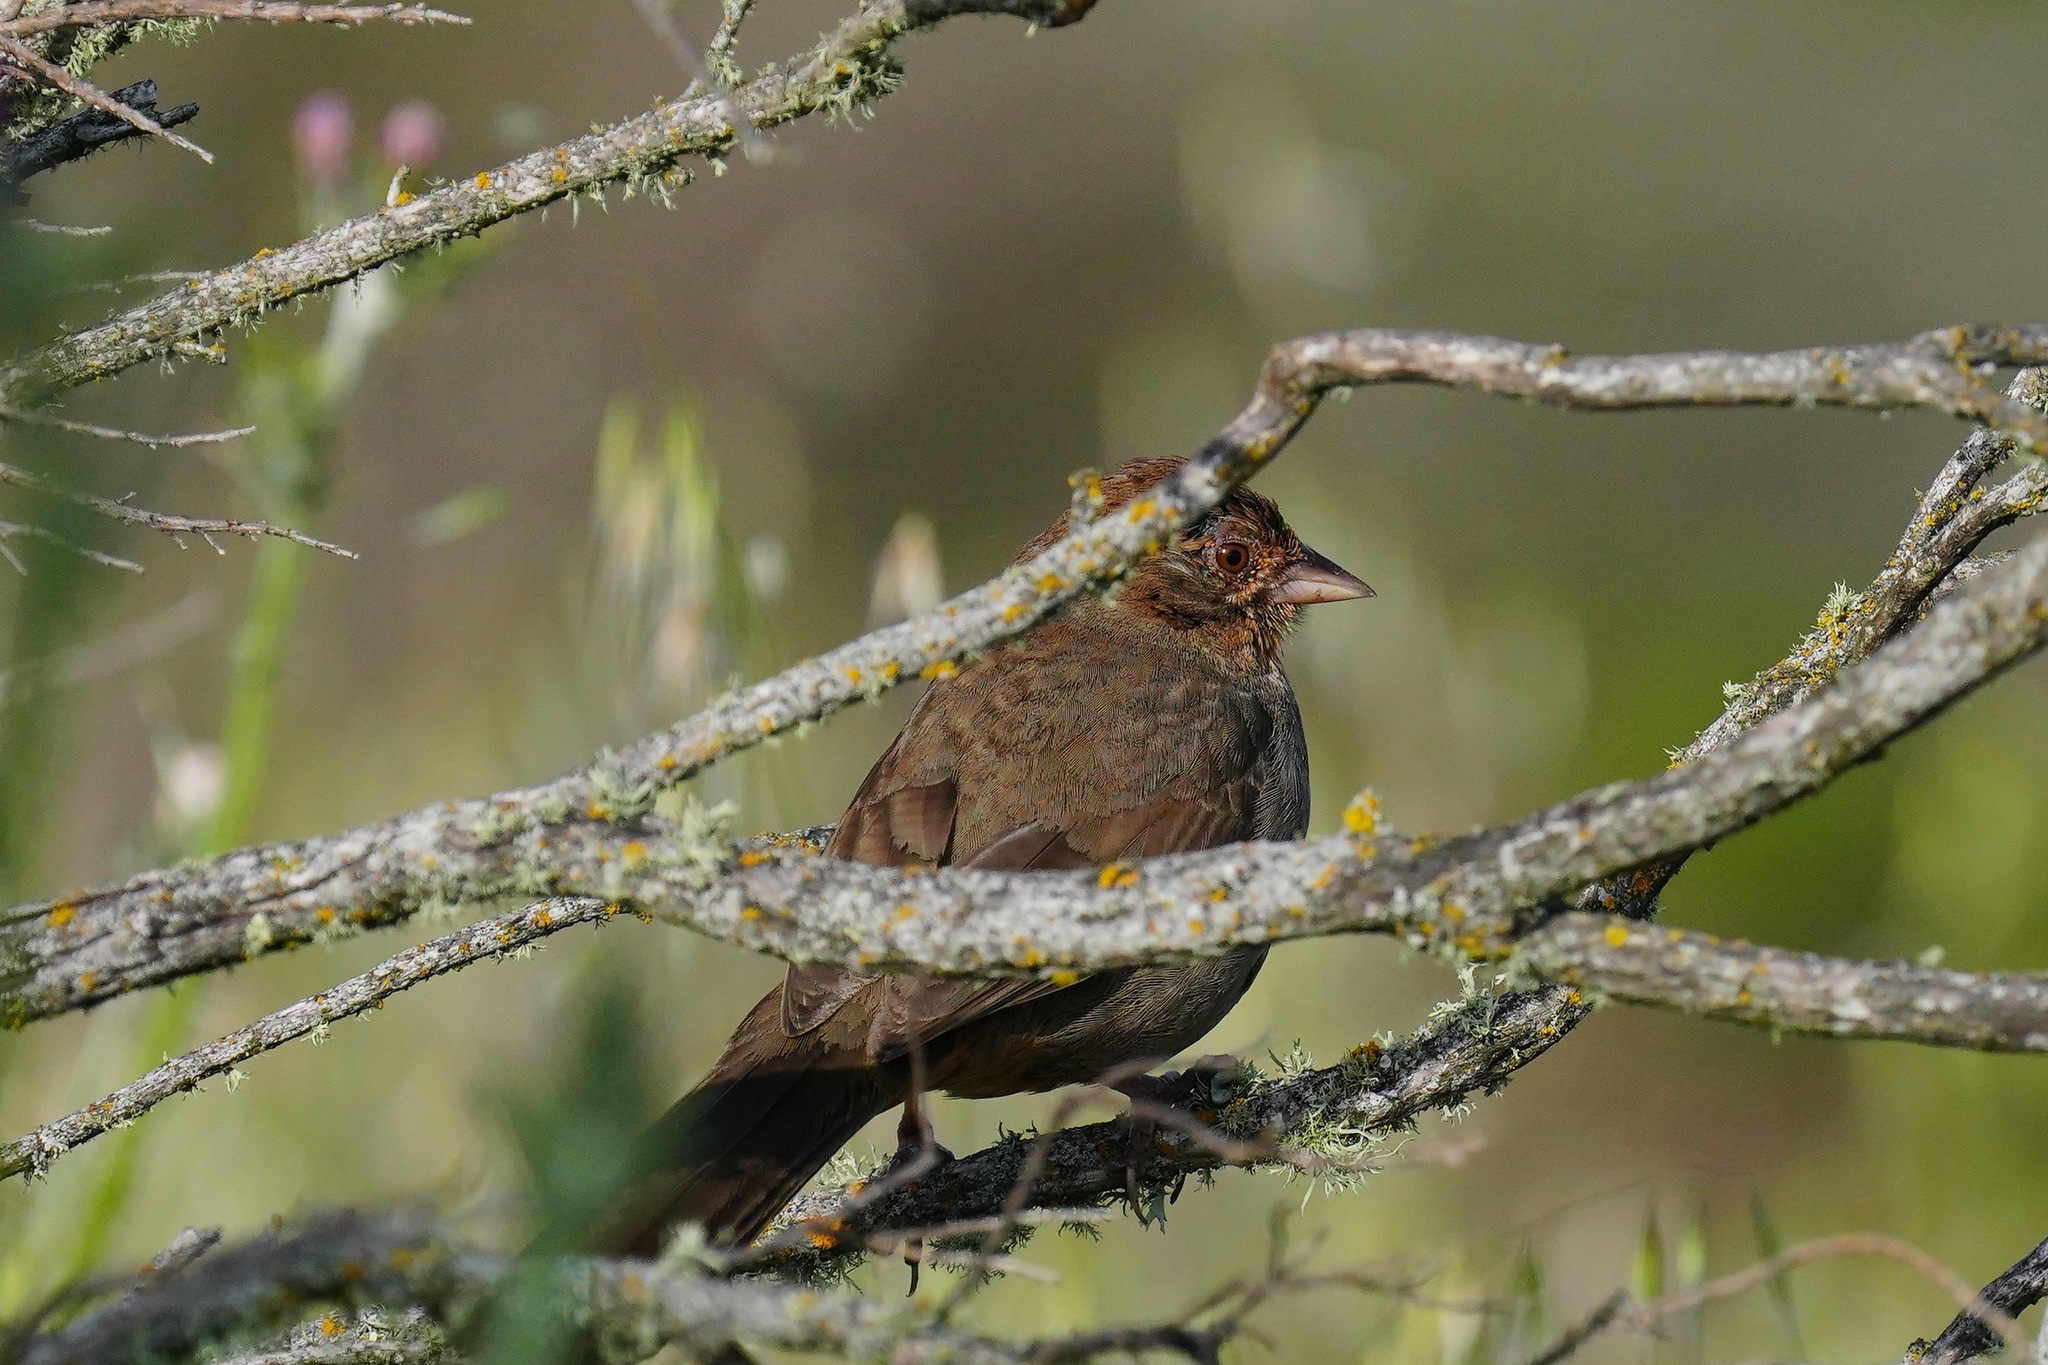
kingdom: Animalia
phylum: Chordata
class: Aves
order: Passeriformes
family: Passerellidae
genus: Melozone
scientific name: Melozone crissalis
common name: California towhee
